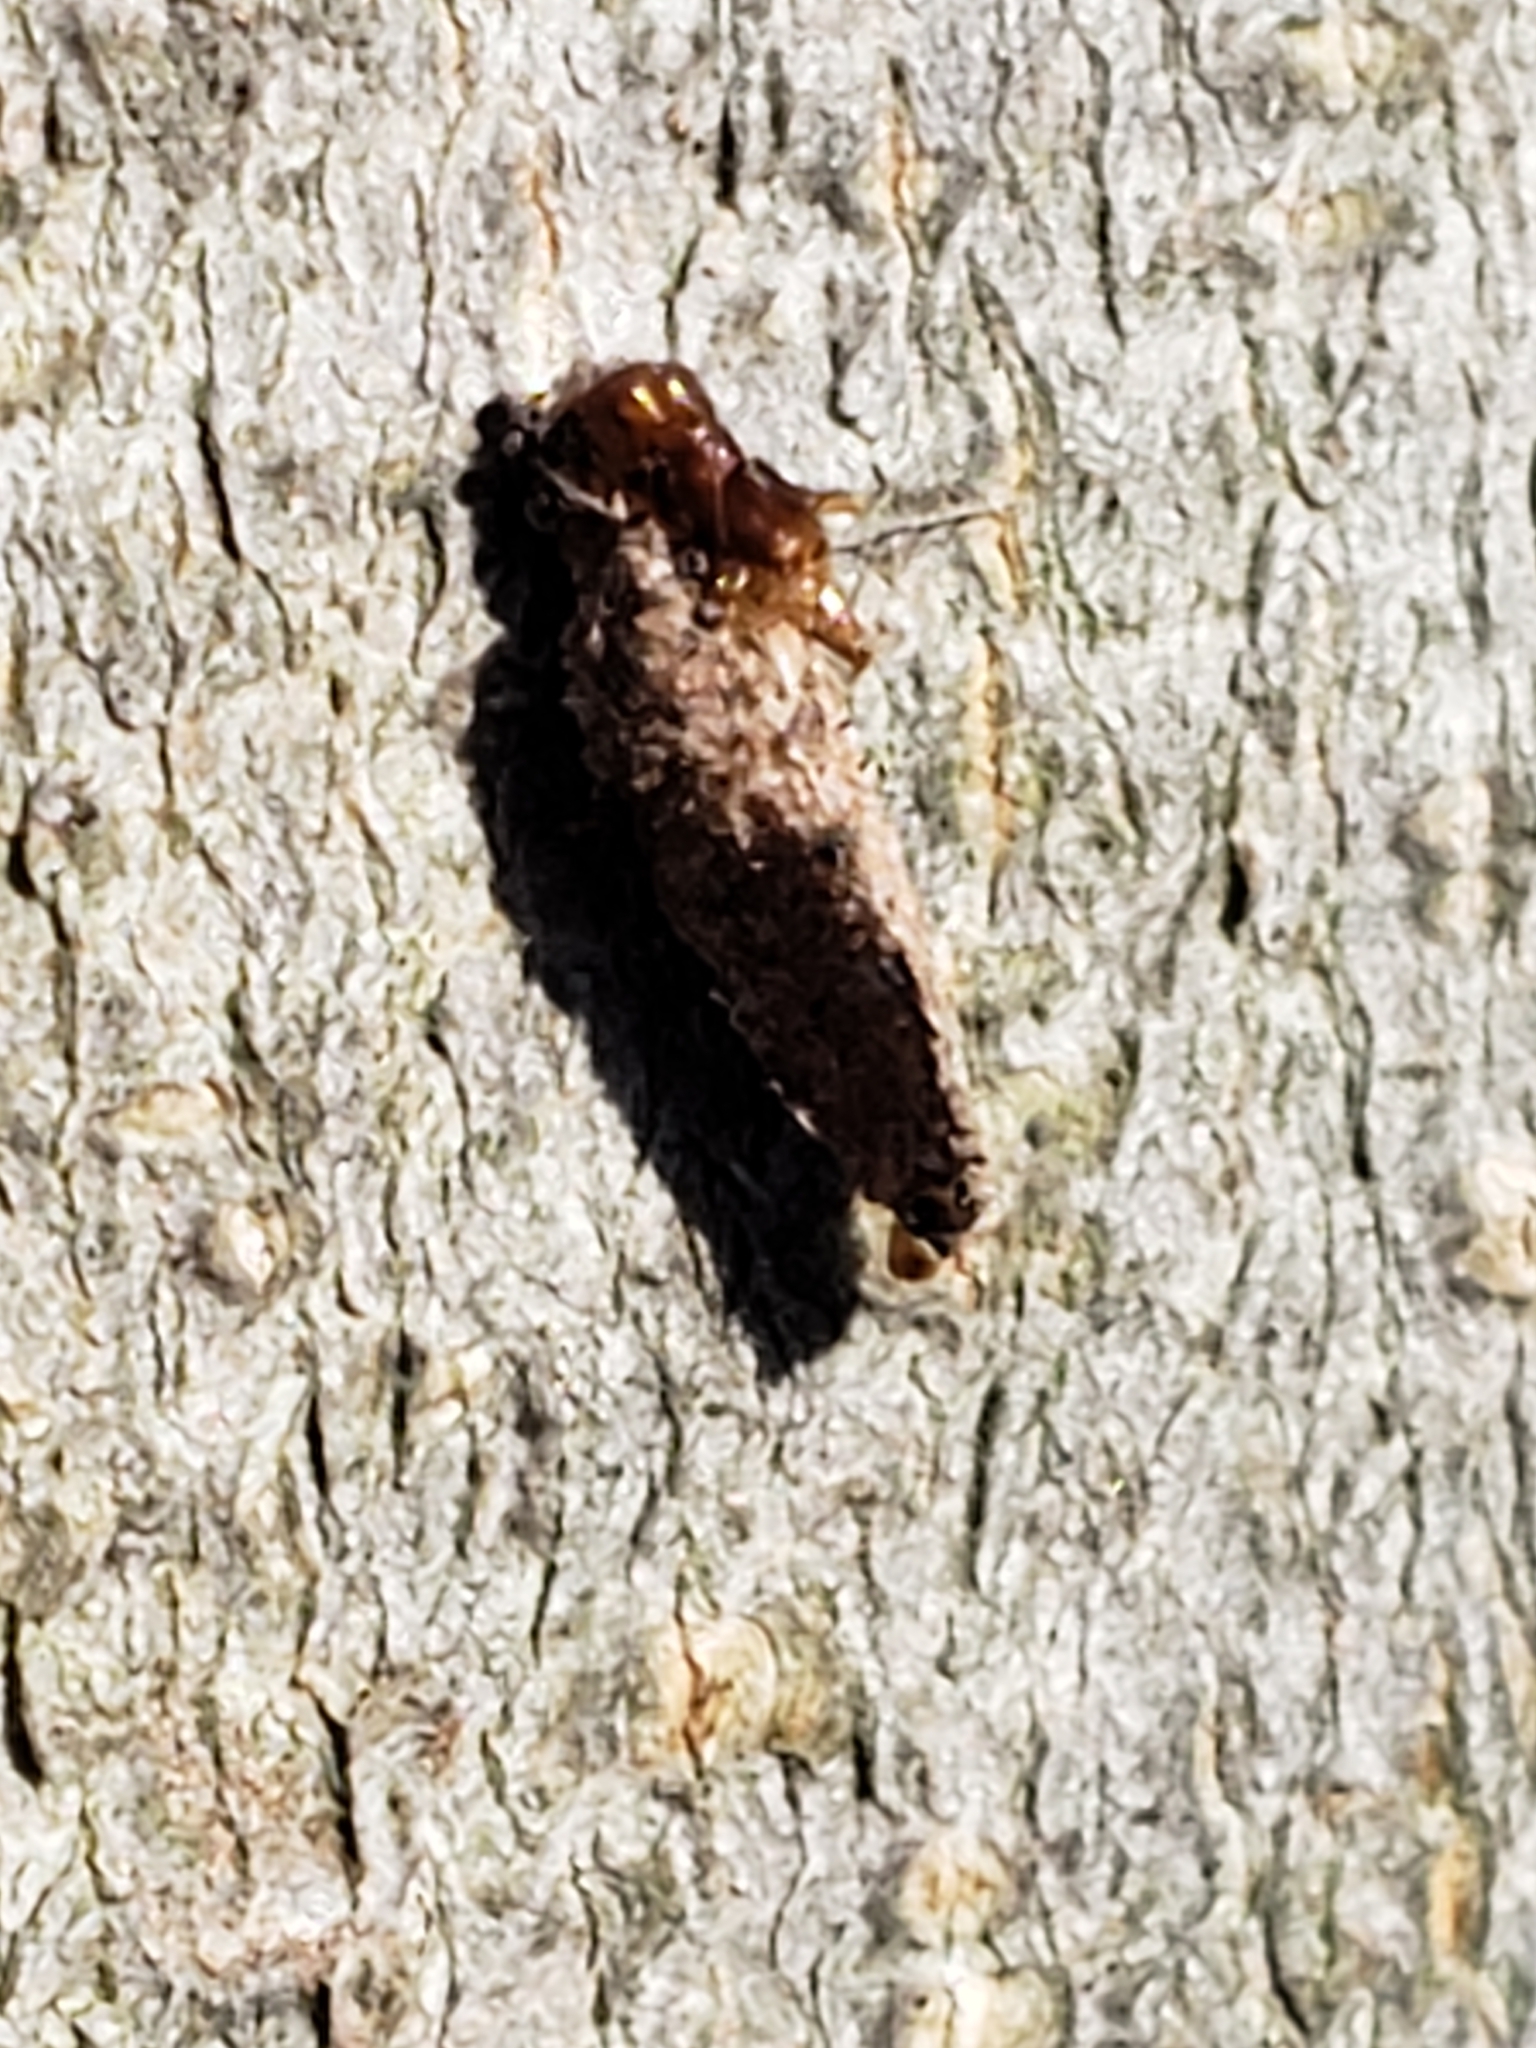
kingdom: Animalia
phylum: Arthropoda
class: Insecta
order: Lepidoptera
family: Psychidae
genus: Dahlica
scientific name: Dahlica triquetrella
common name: Narrow lichen case-bearer
